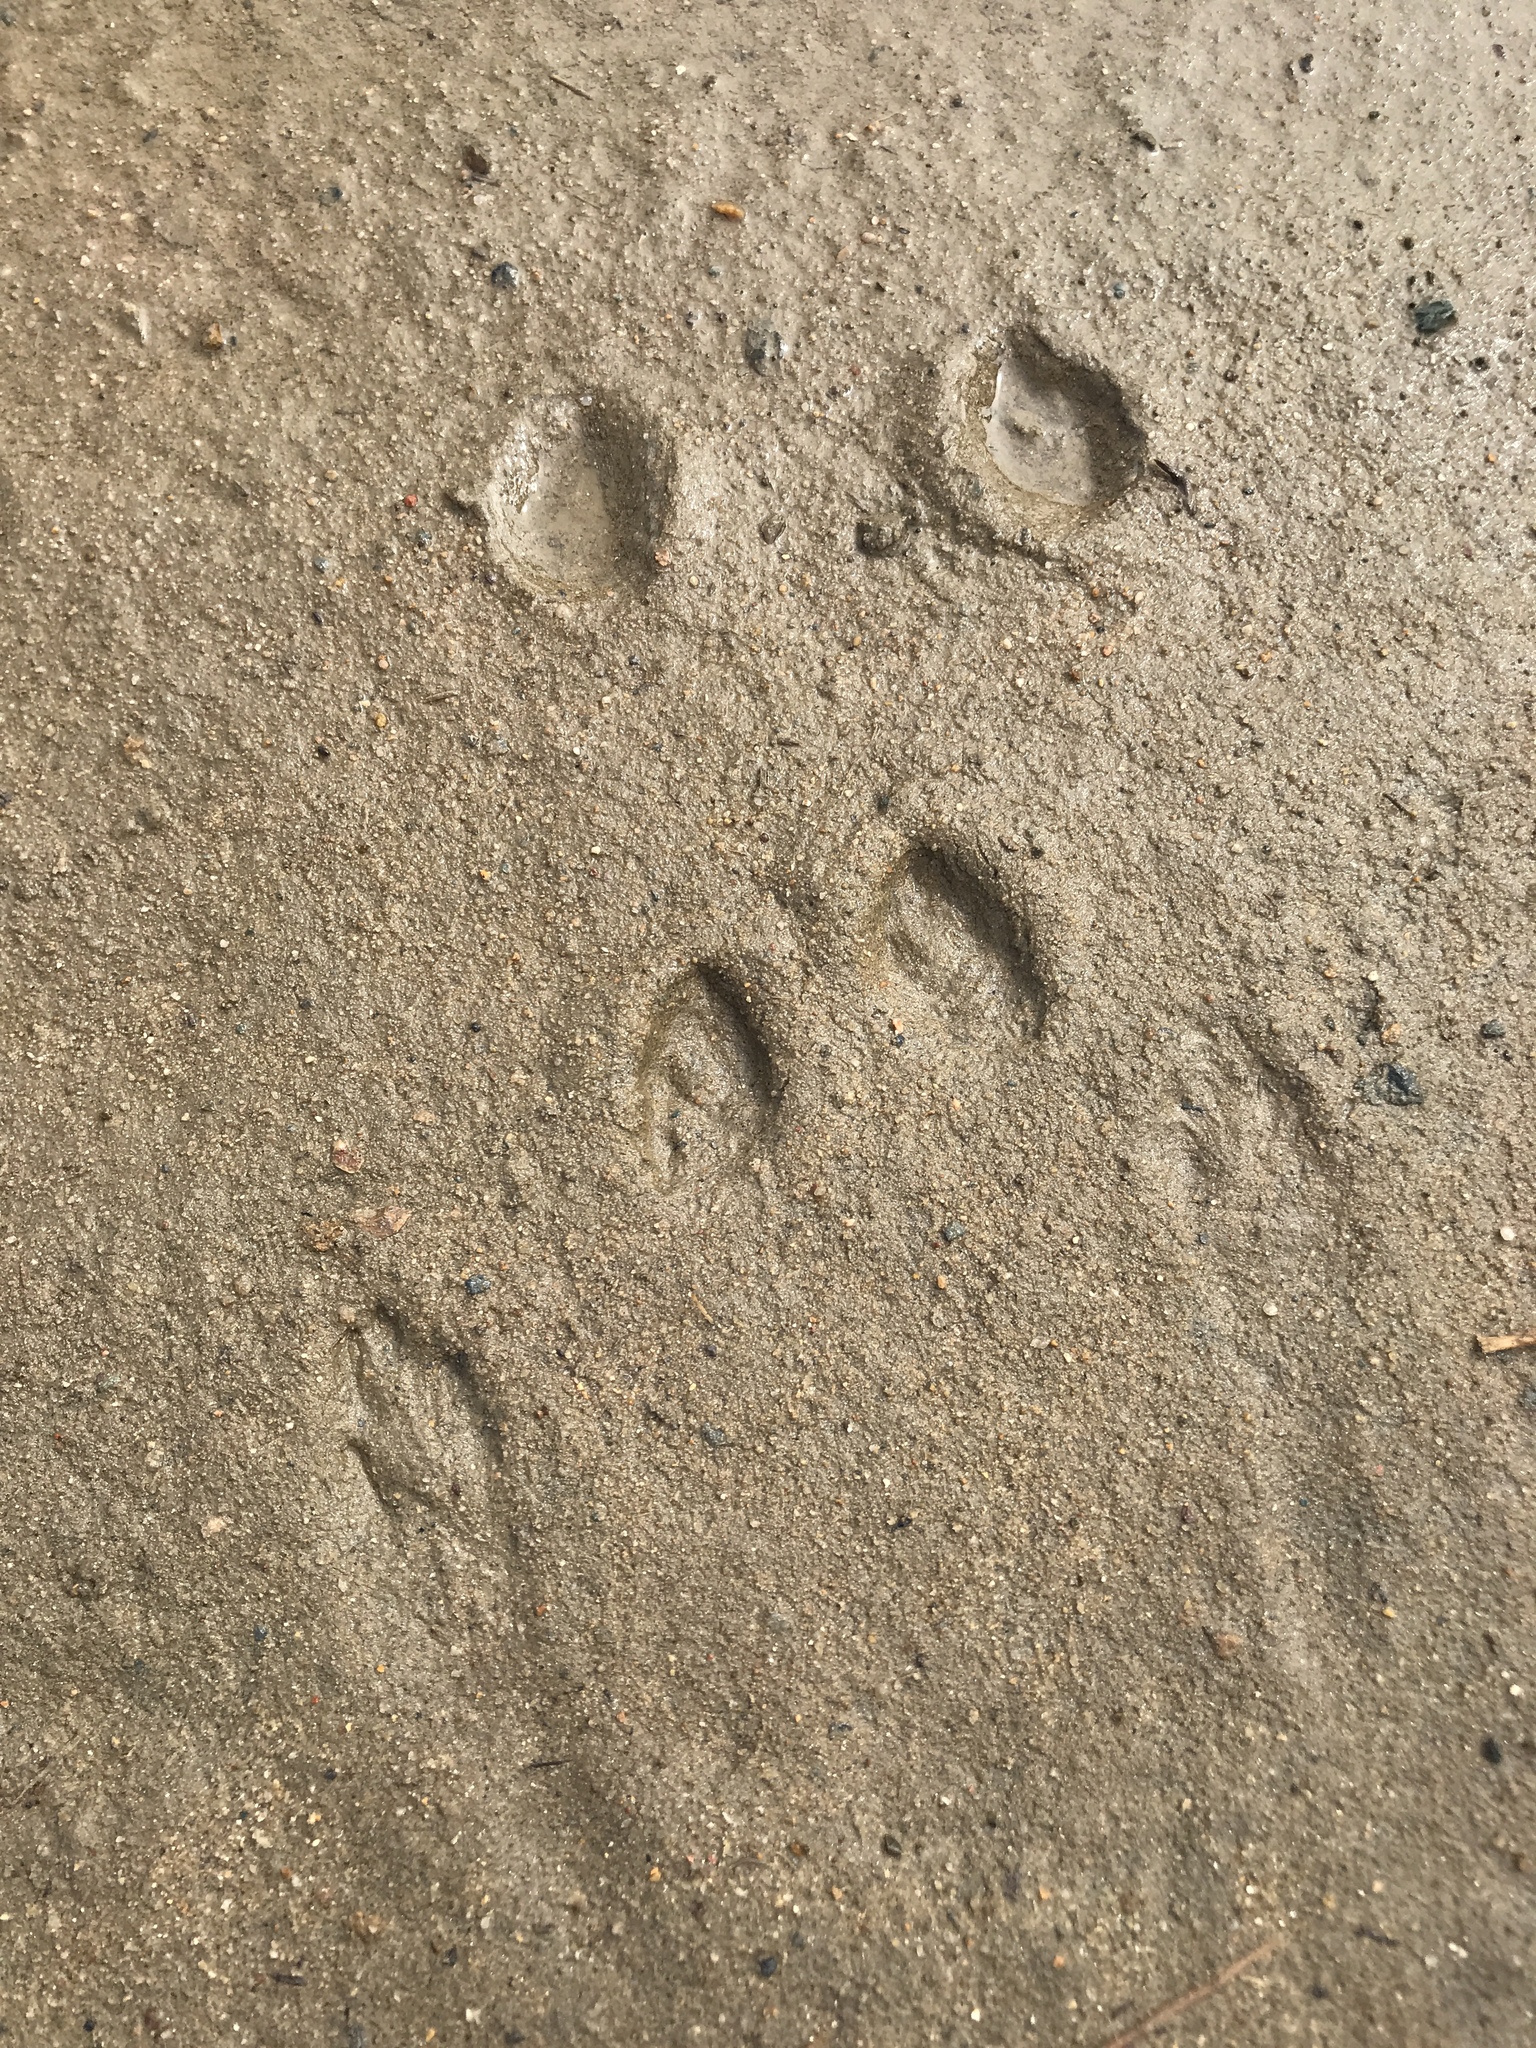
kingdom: Animalia
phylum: Chordata
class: Mammalia
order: Lagomorpha
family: Leporidae
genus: Sylvilagus
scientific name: Sylvilagus audubonii
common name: Desert cottontail
